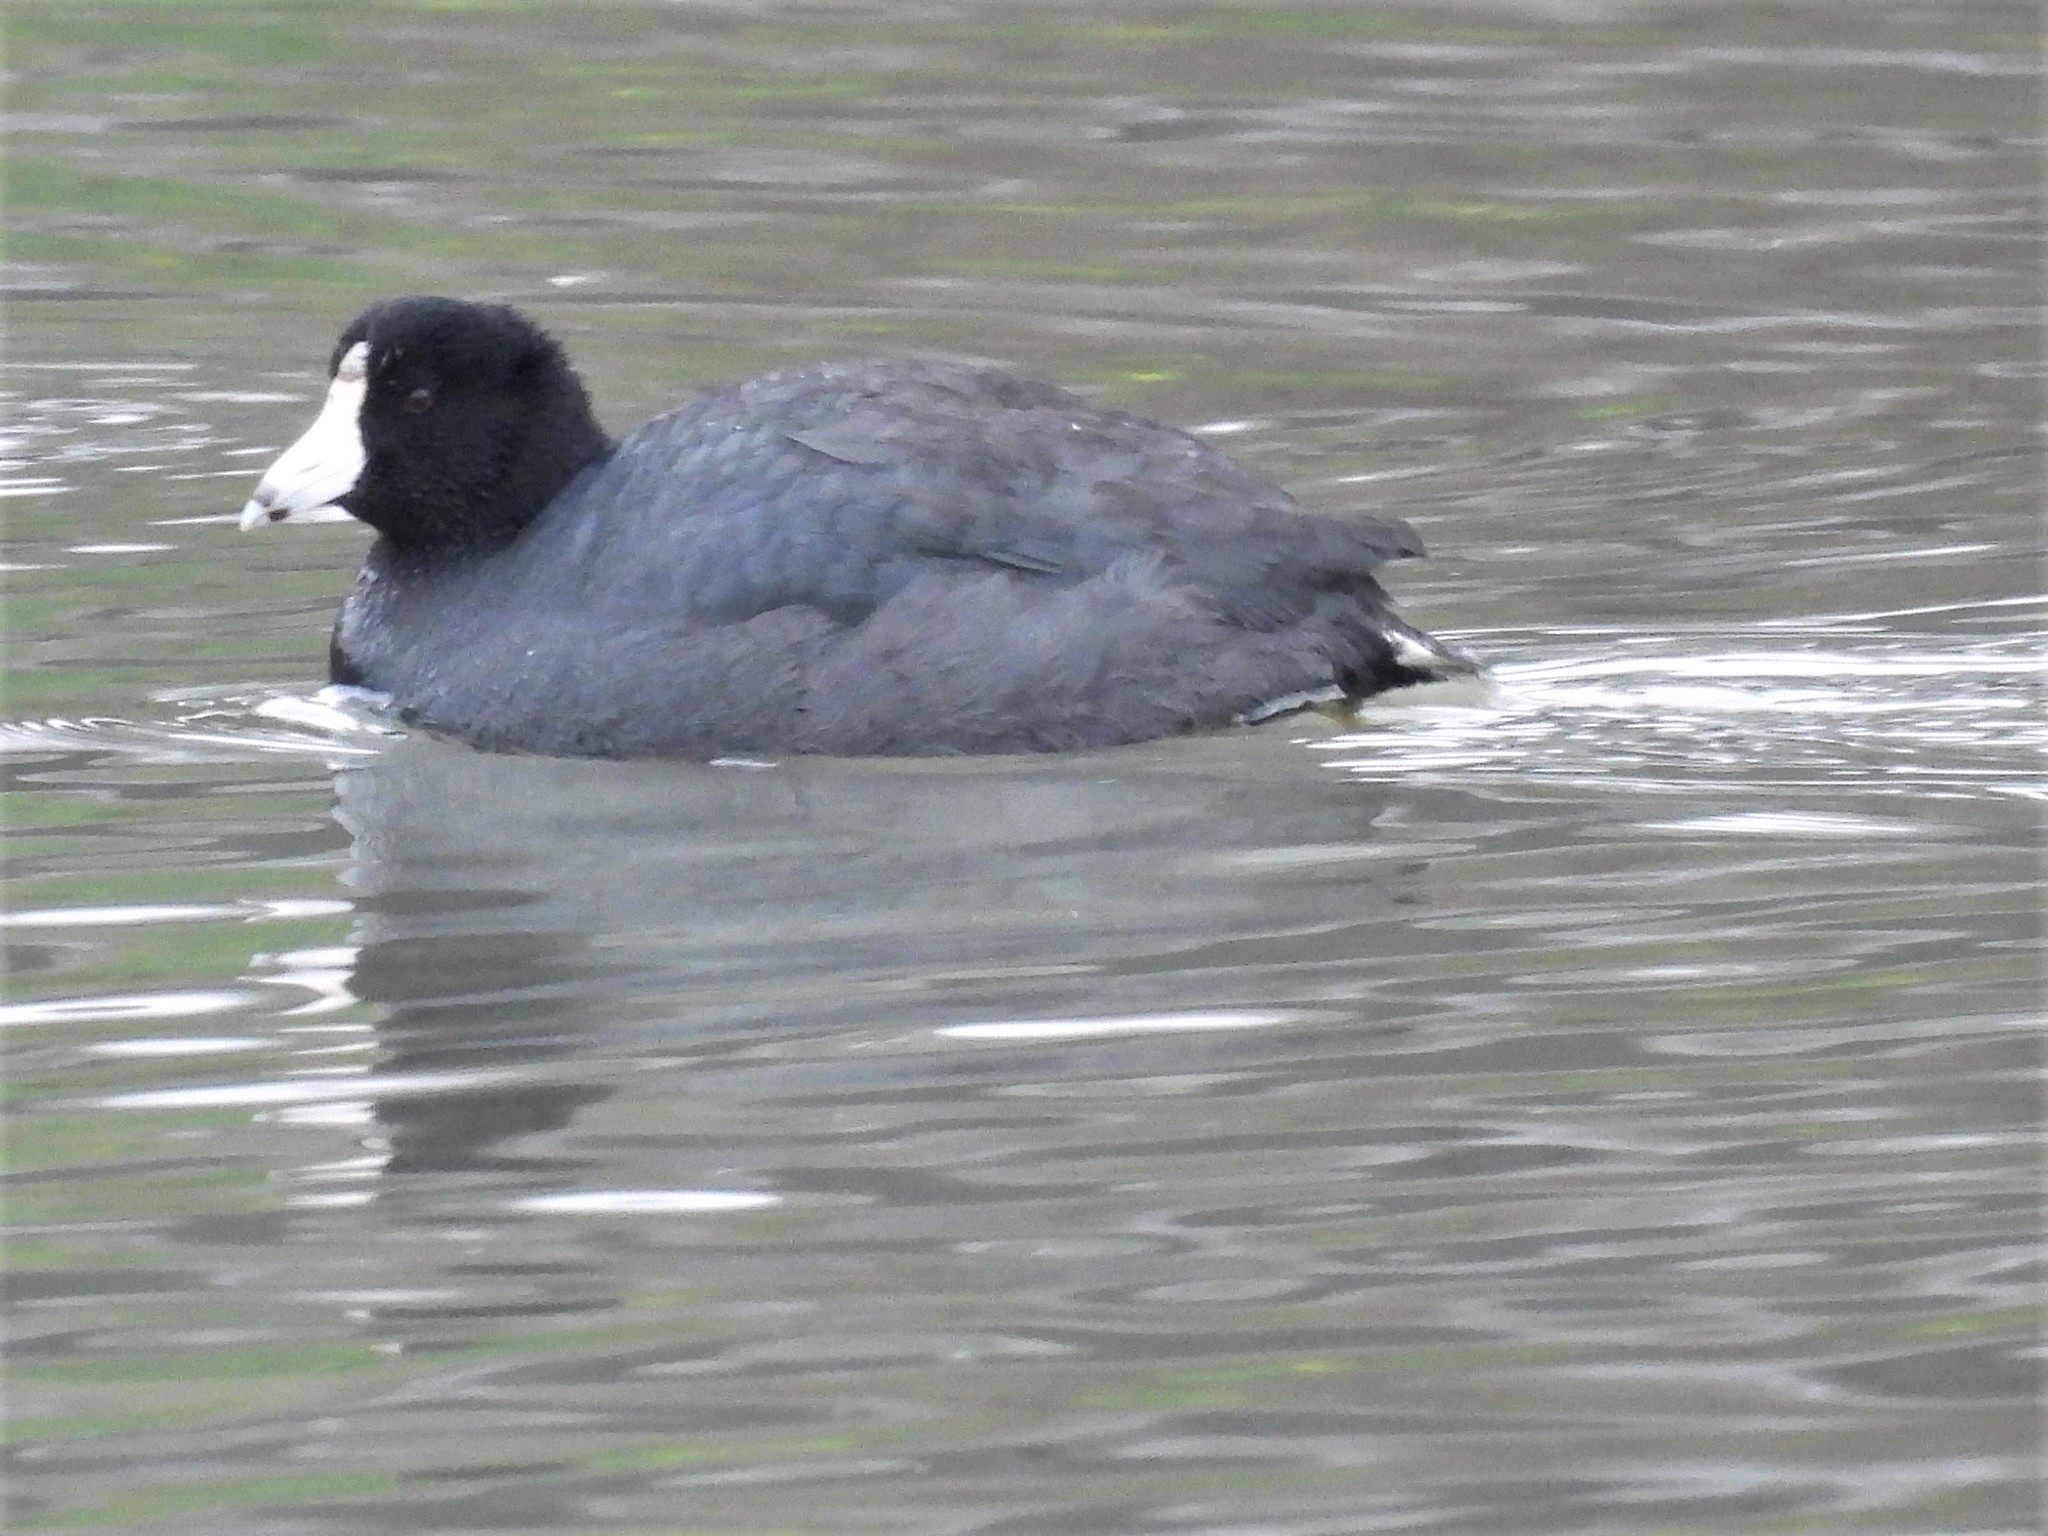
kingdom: Animalia
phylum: Chordata
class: Aves
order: Gruiformes
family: Rallidae
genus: Fulica
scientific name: Fulica americana
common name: American coot
